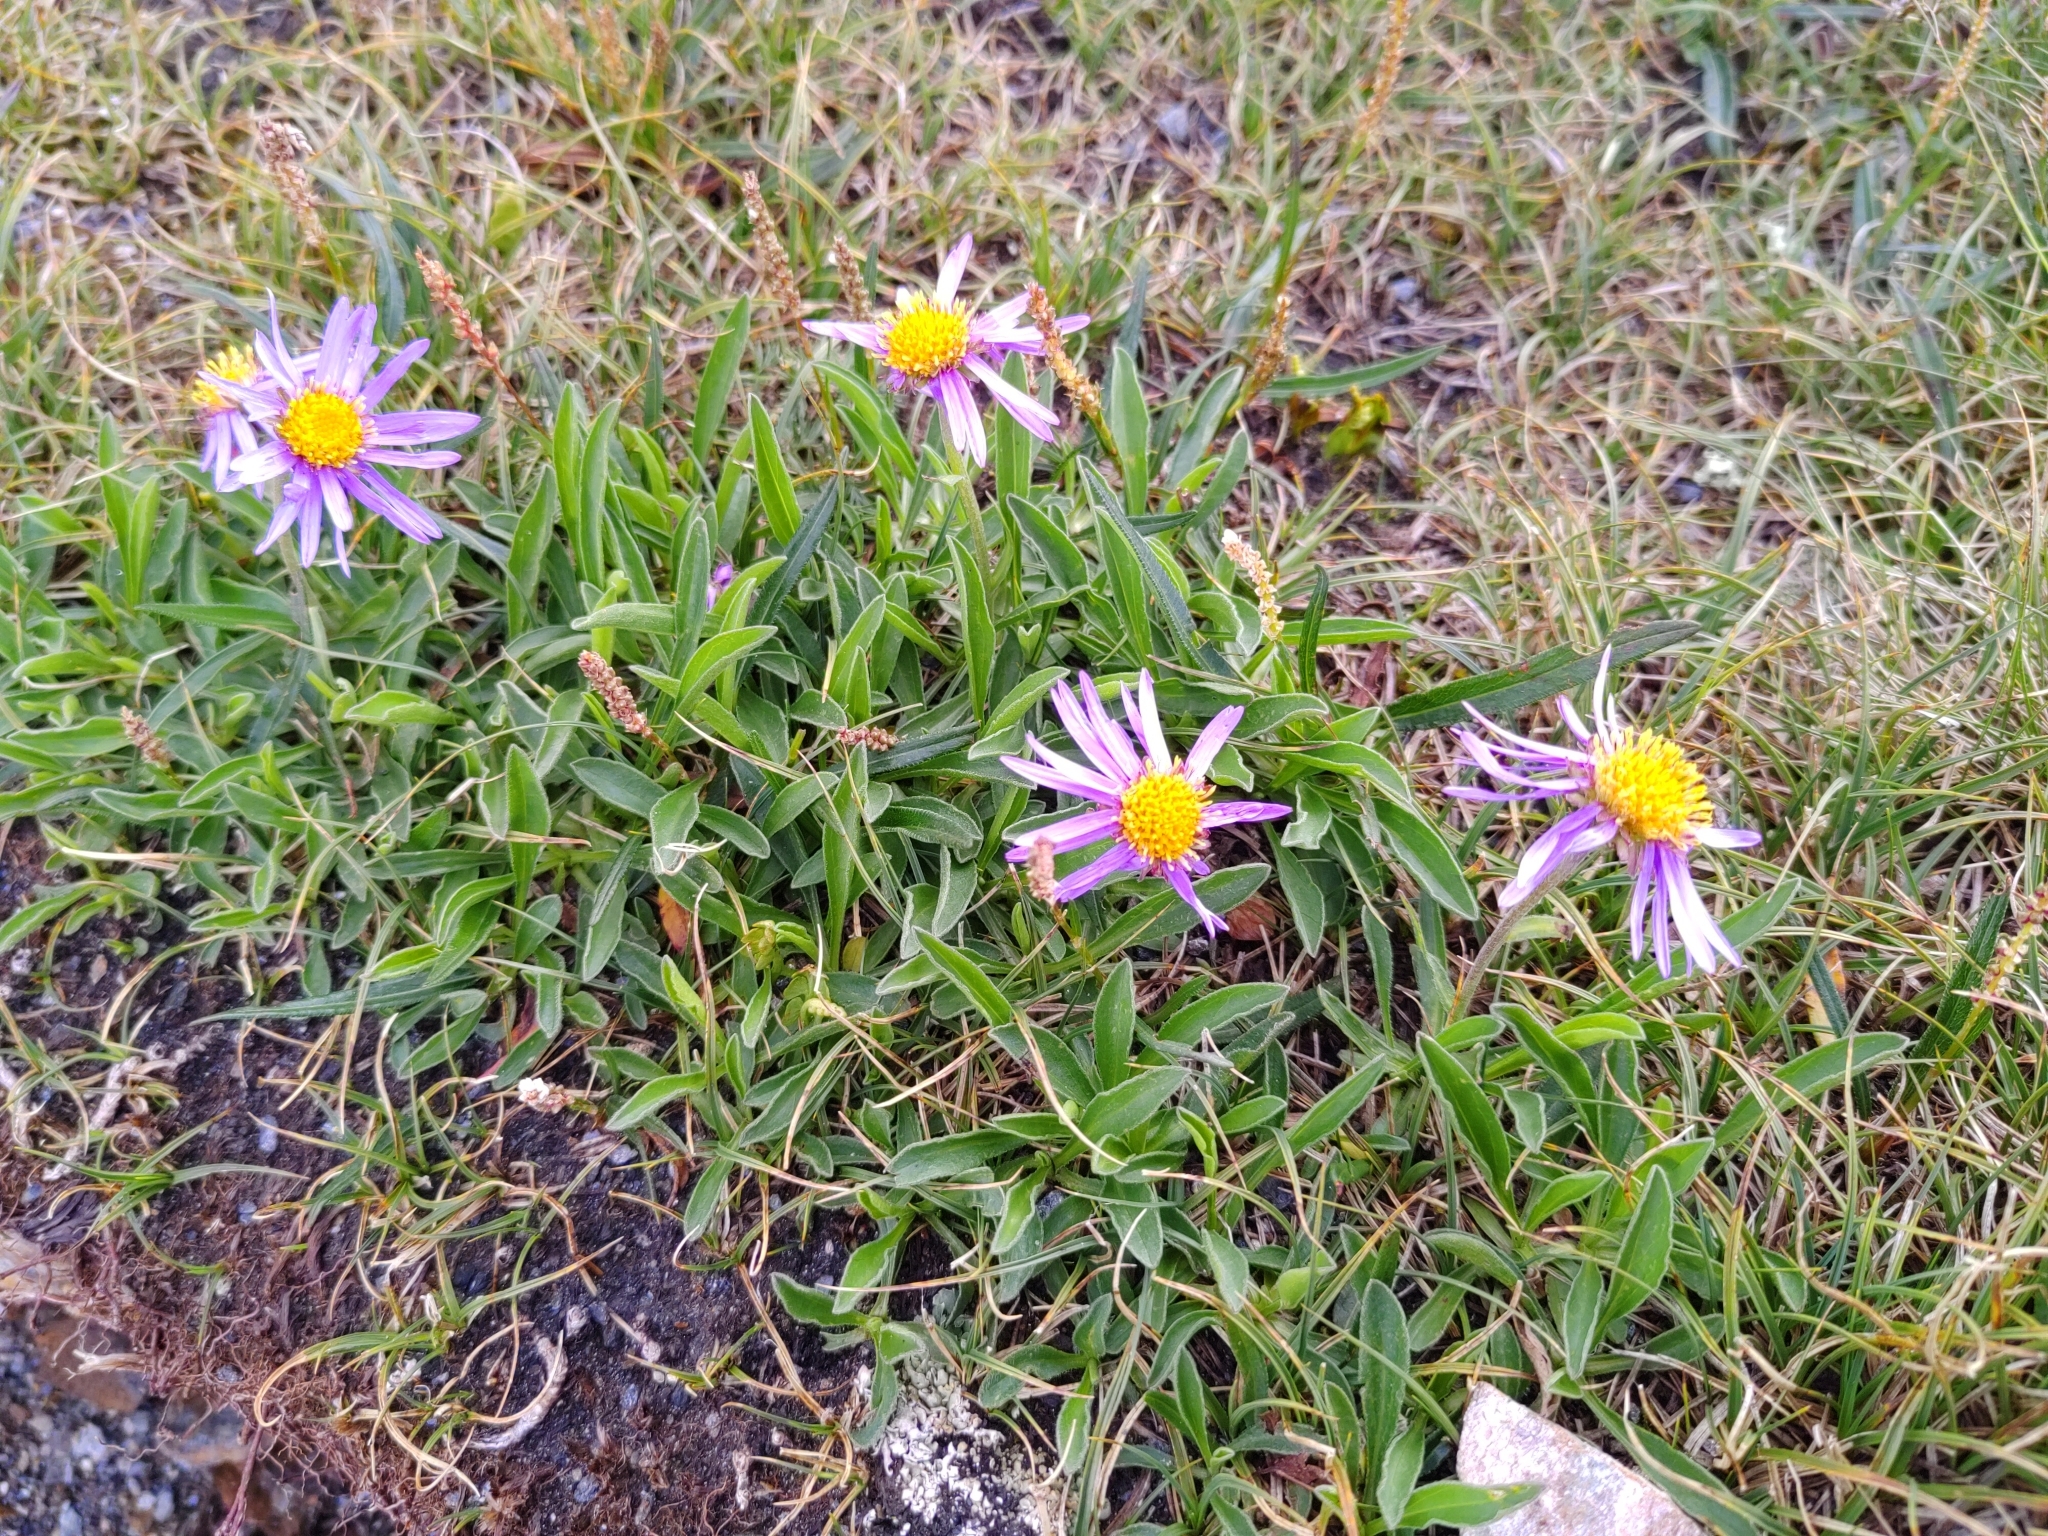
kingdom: Plantae
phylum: Tracheophyta
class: Magnoliopsida
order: Asterales
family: Asteraceae
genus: Aster
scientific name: Aster alpinus
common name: Alpine aster
